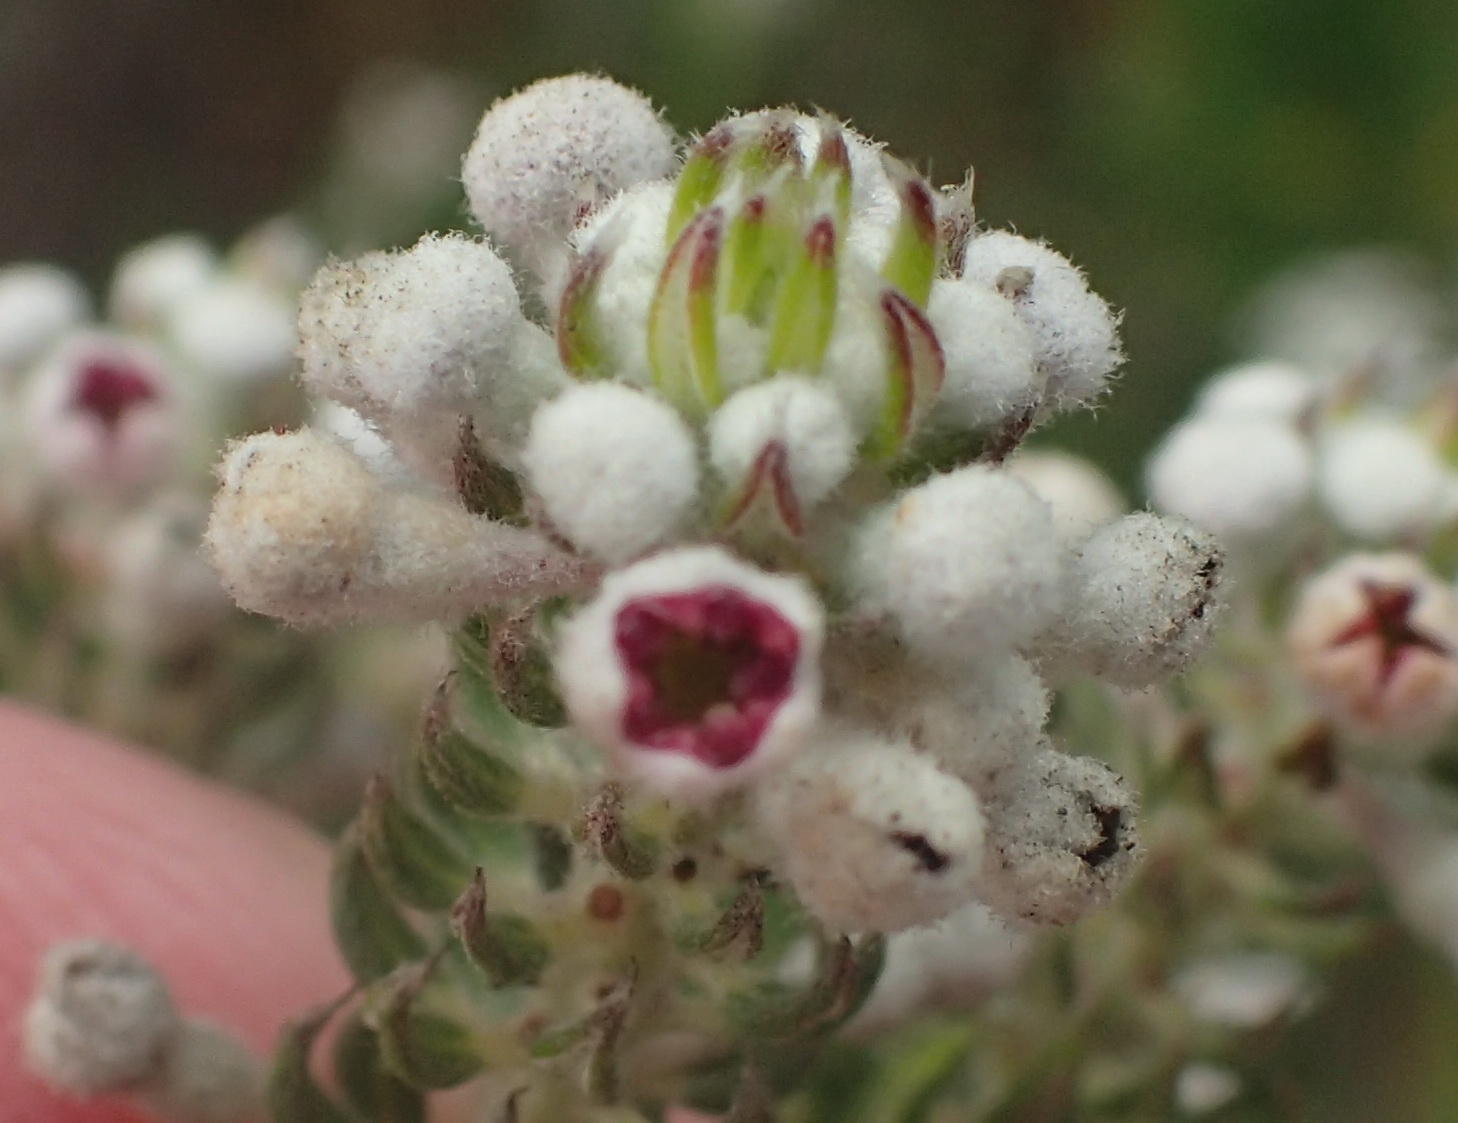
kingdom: Plantae
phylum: Tracheophyta
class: Magnoliopsida
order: Rosales
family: Rhamnaceae
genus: Phylica
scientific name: Phylica pinea
